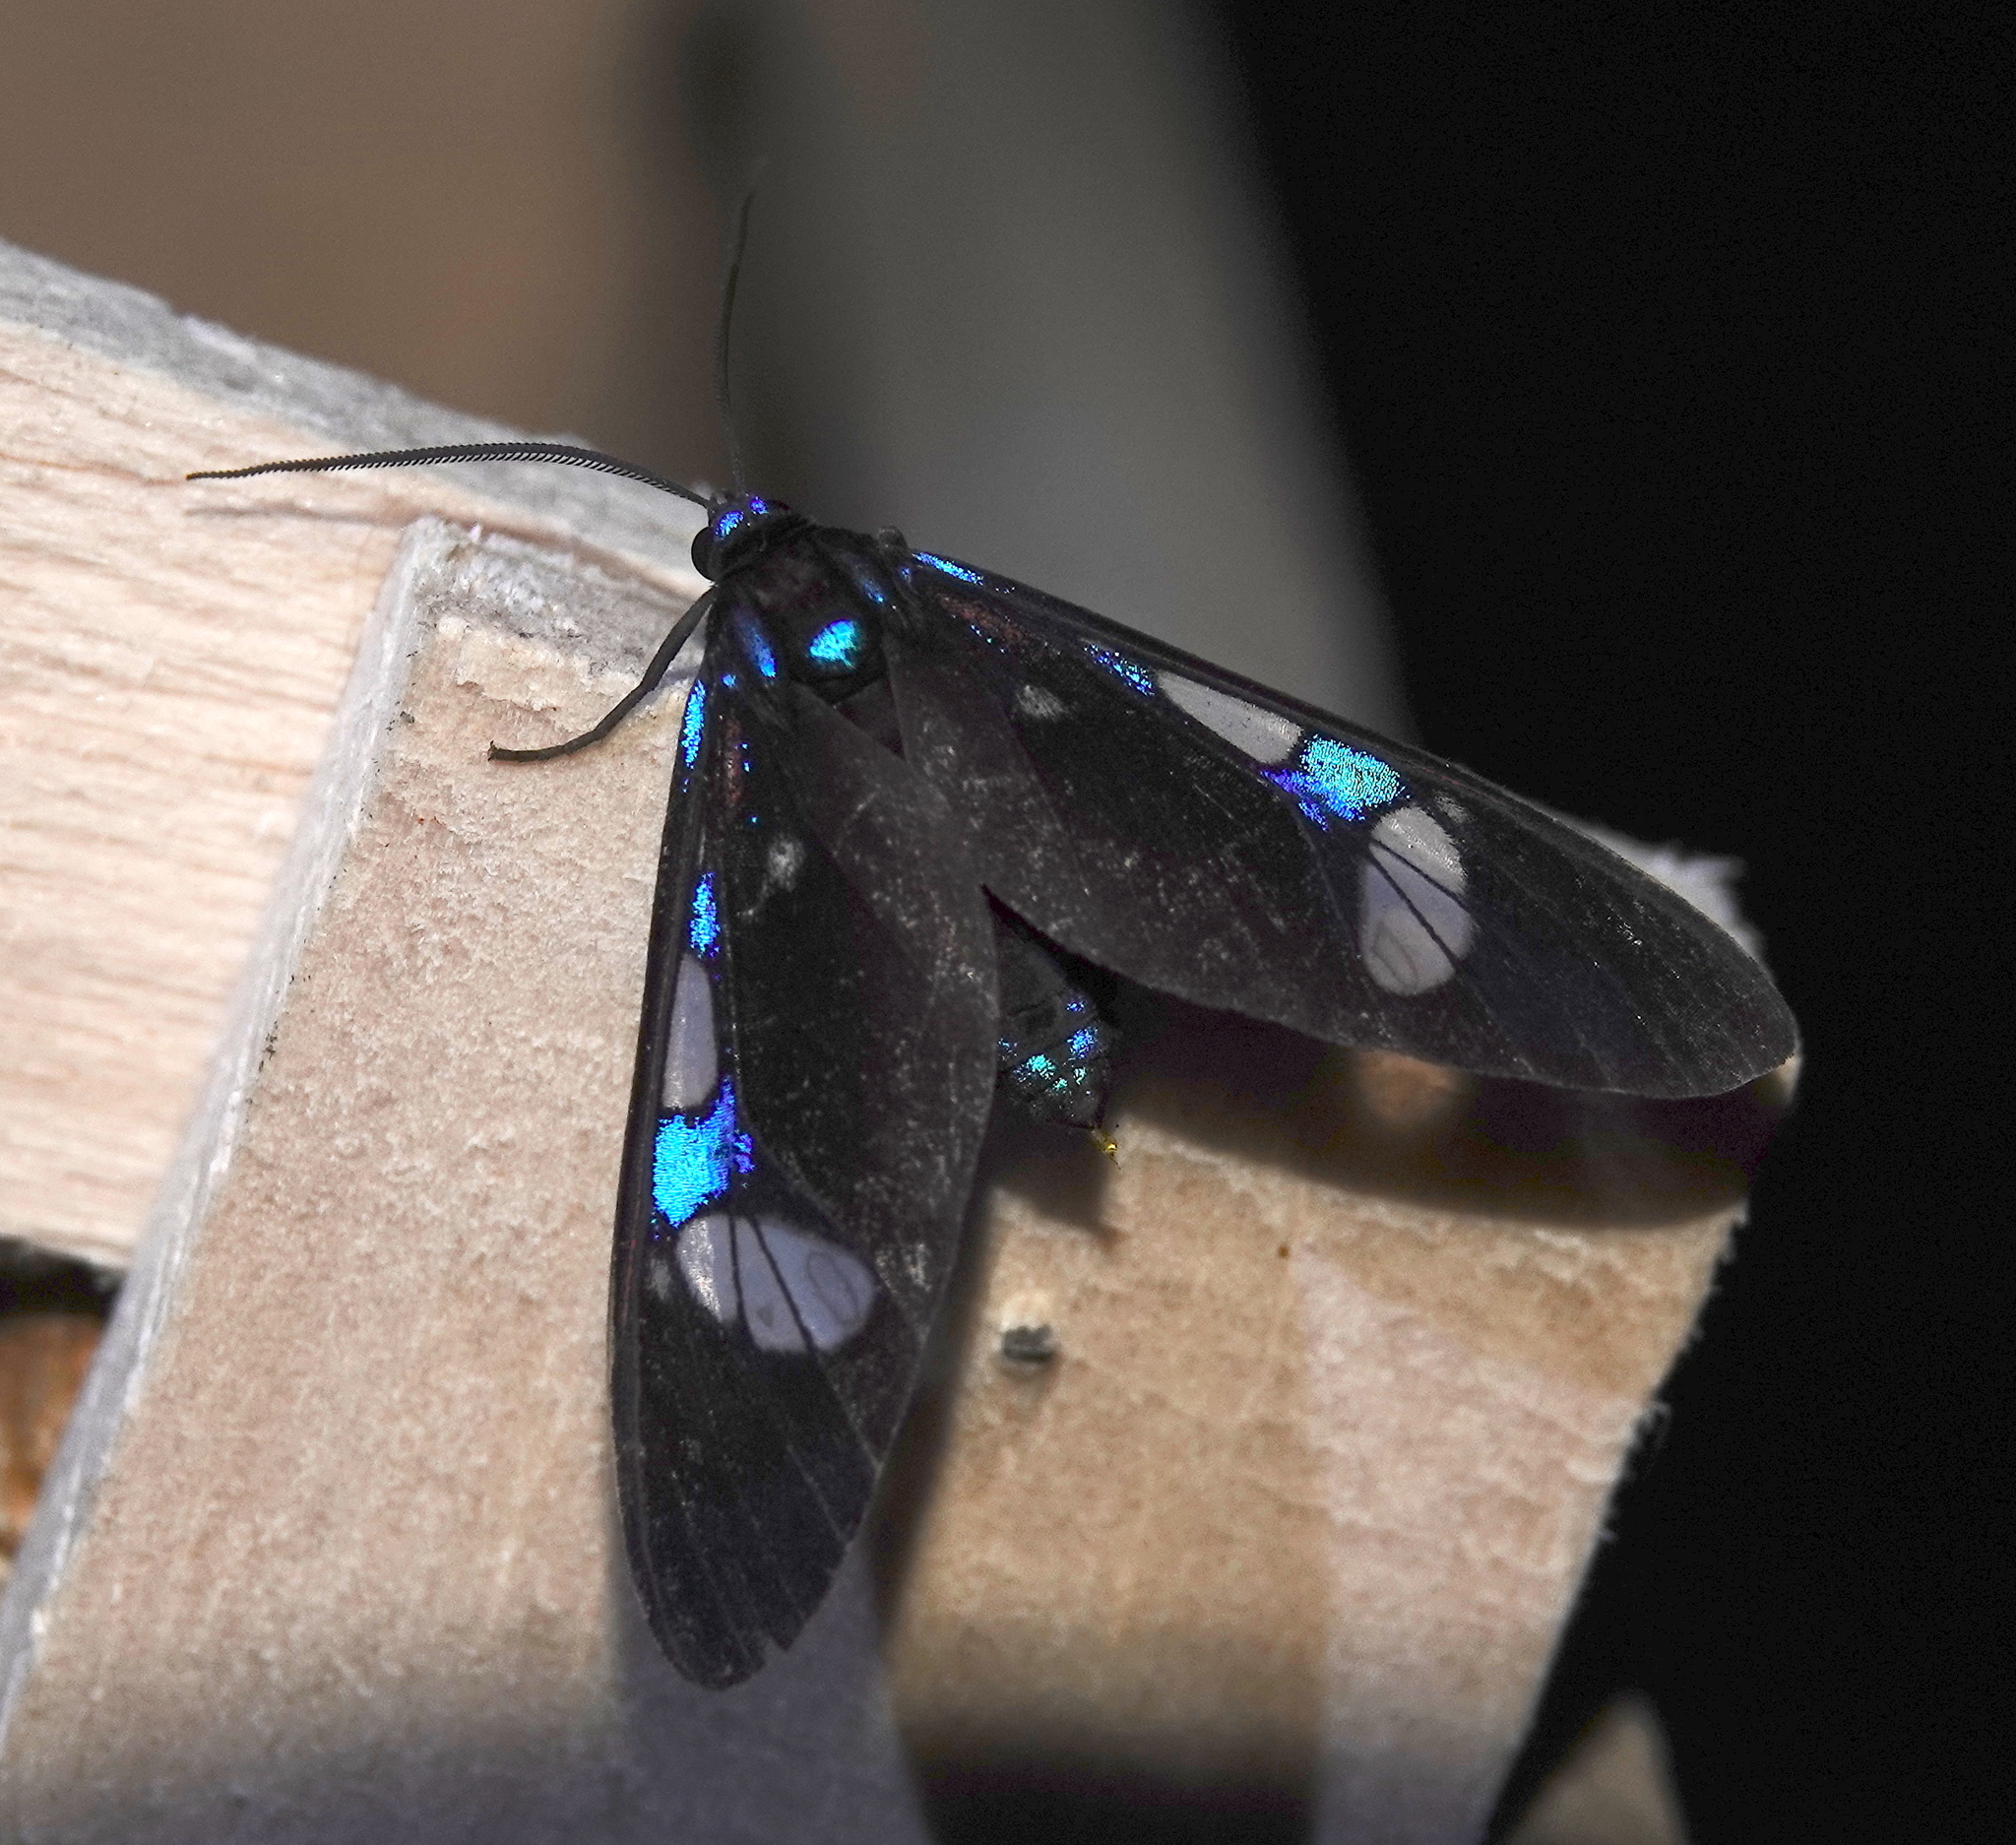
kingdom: Animalia
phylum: Arthropoda
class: Insecta
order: Lepidoptera
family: Erebidae
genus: Androcharta
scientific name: Androcharta stretchii
